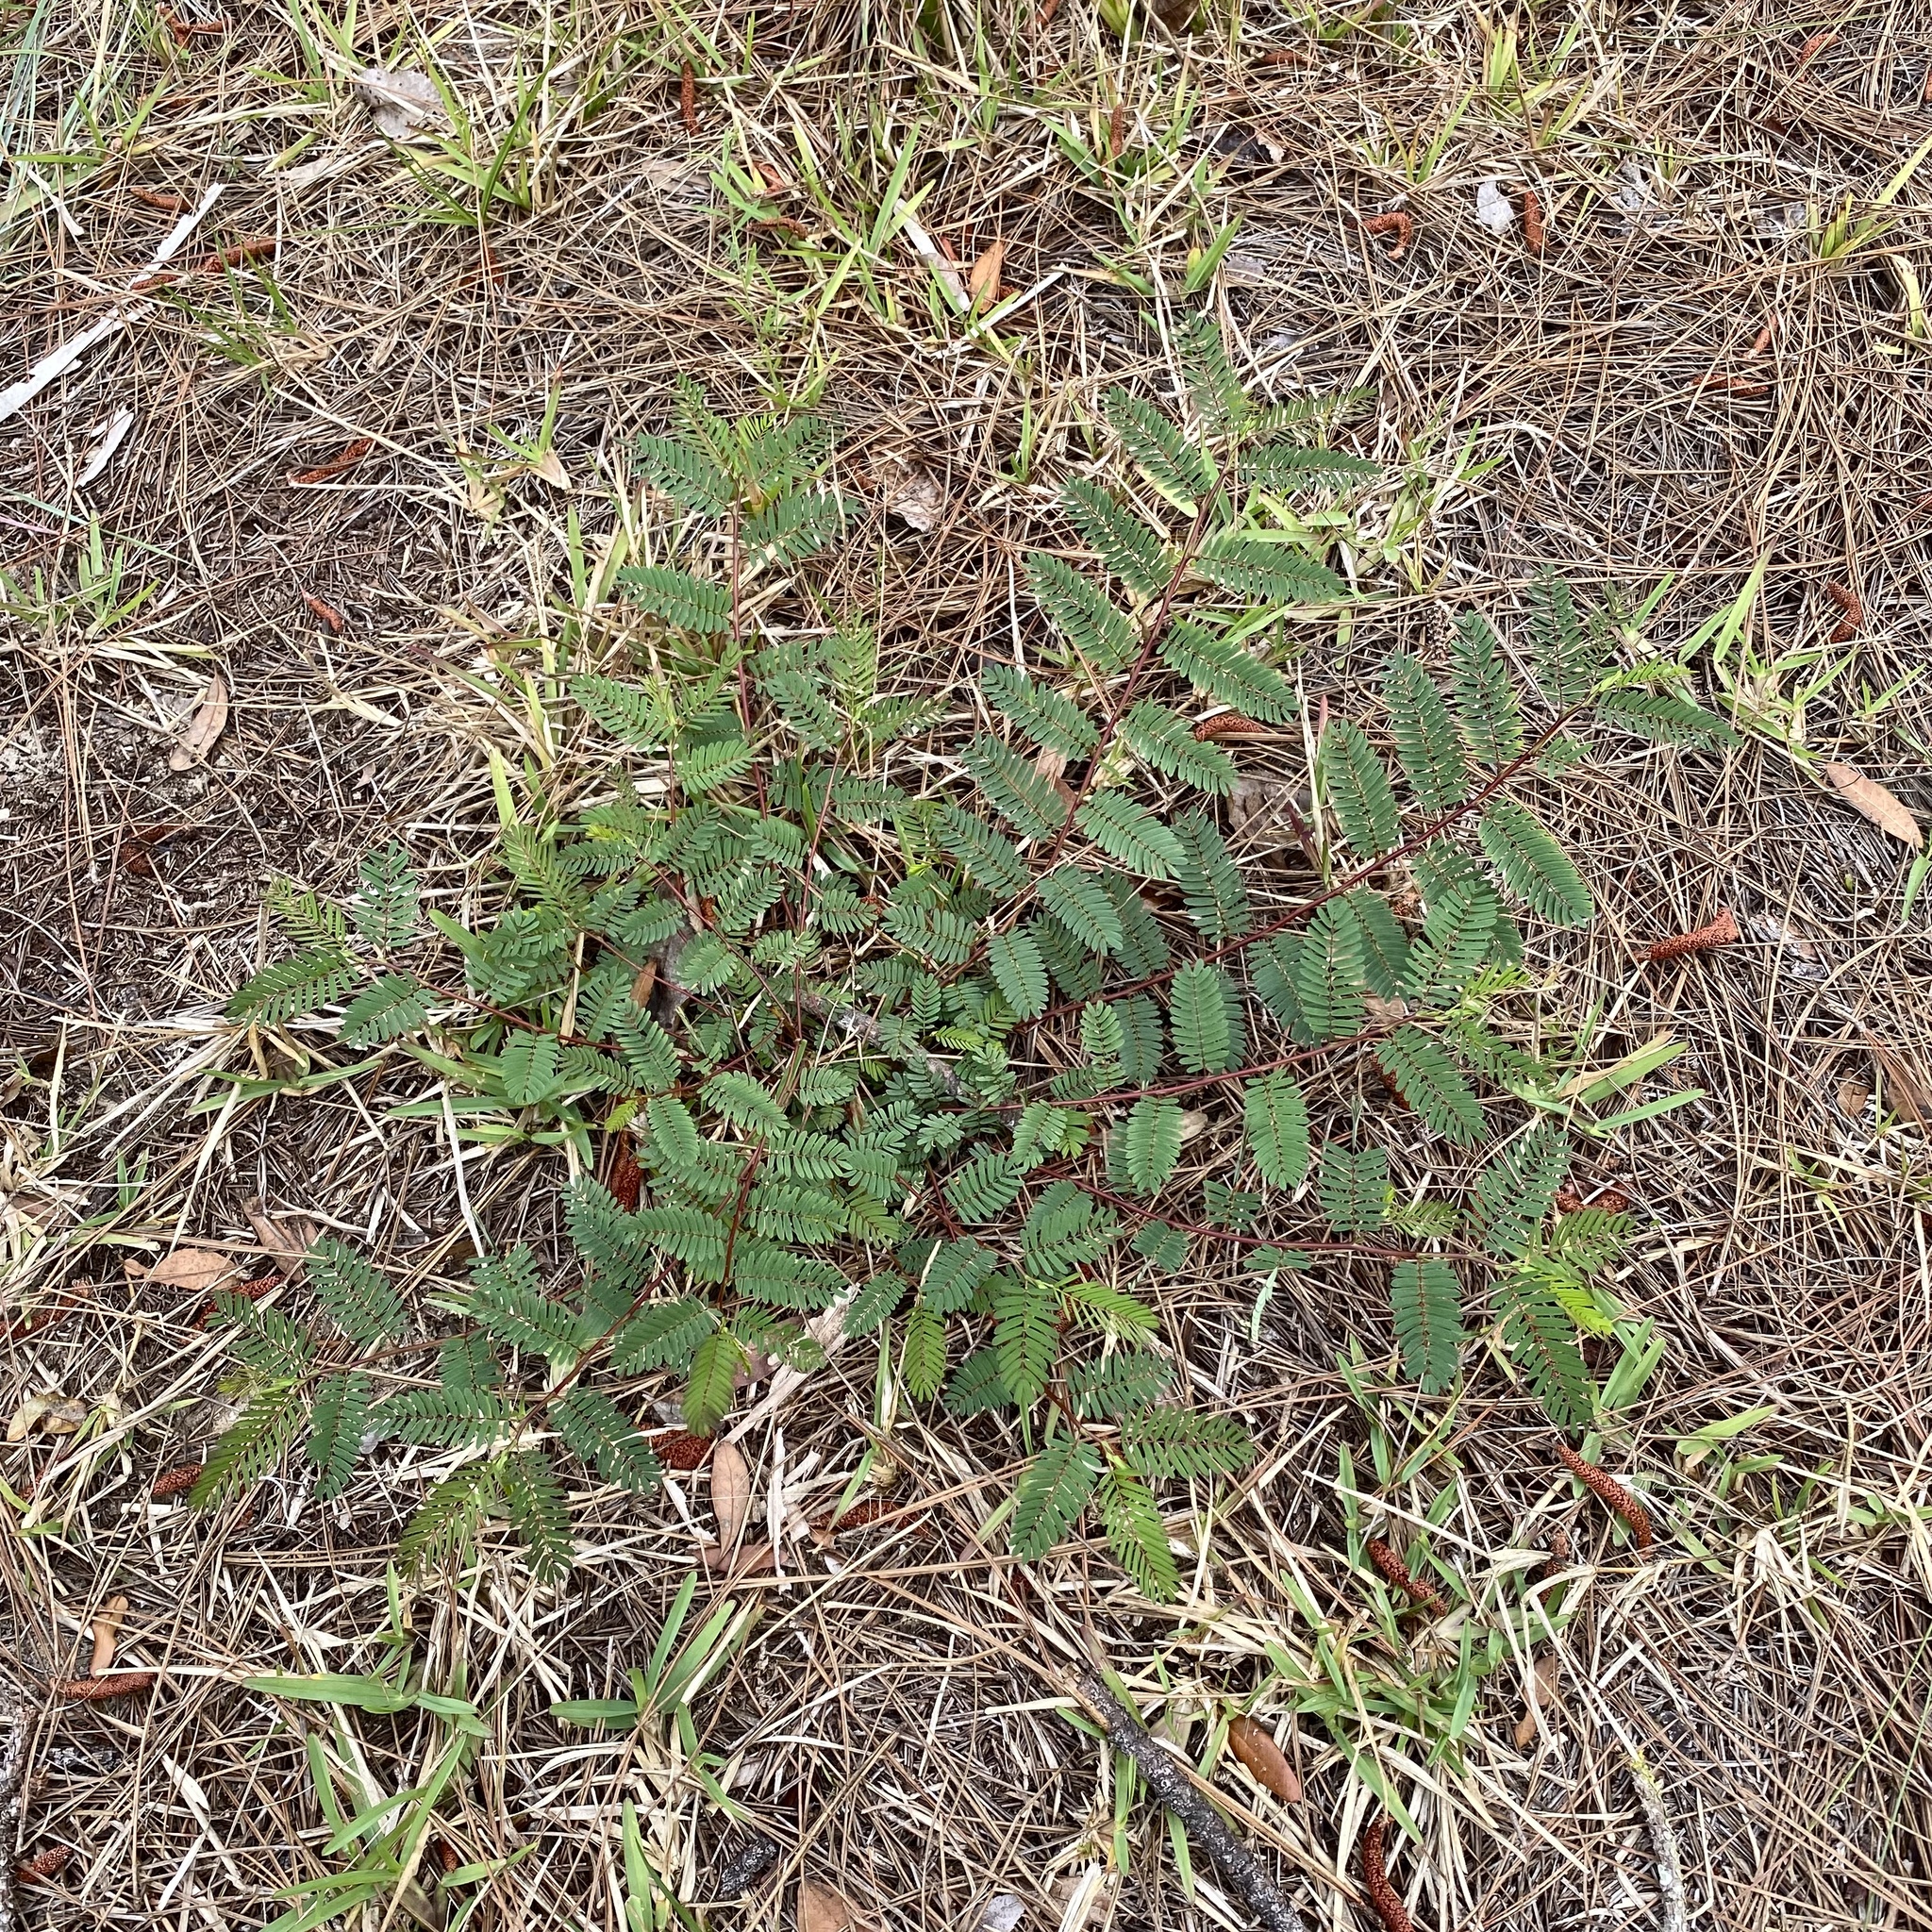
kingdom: Plantae
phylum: Tracheophyta
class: Magnoliopsida
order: Fabales
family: Fabaceae
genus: Chamaecrista
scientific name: Chamaecrista fasciculata
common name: Golden cassia
